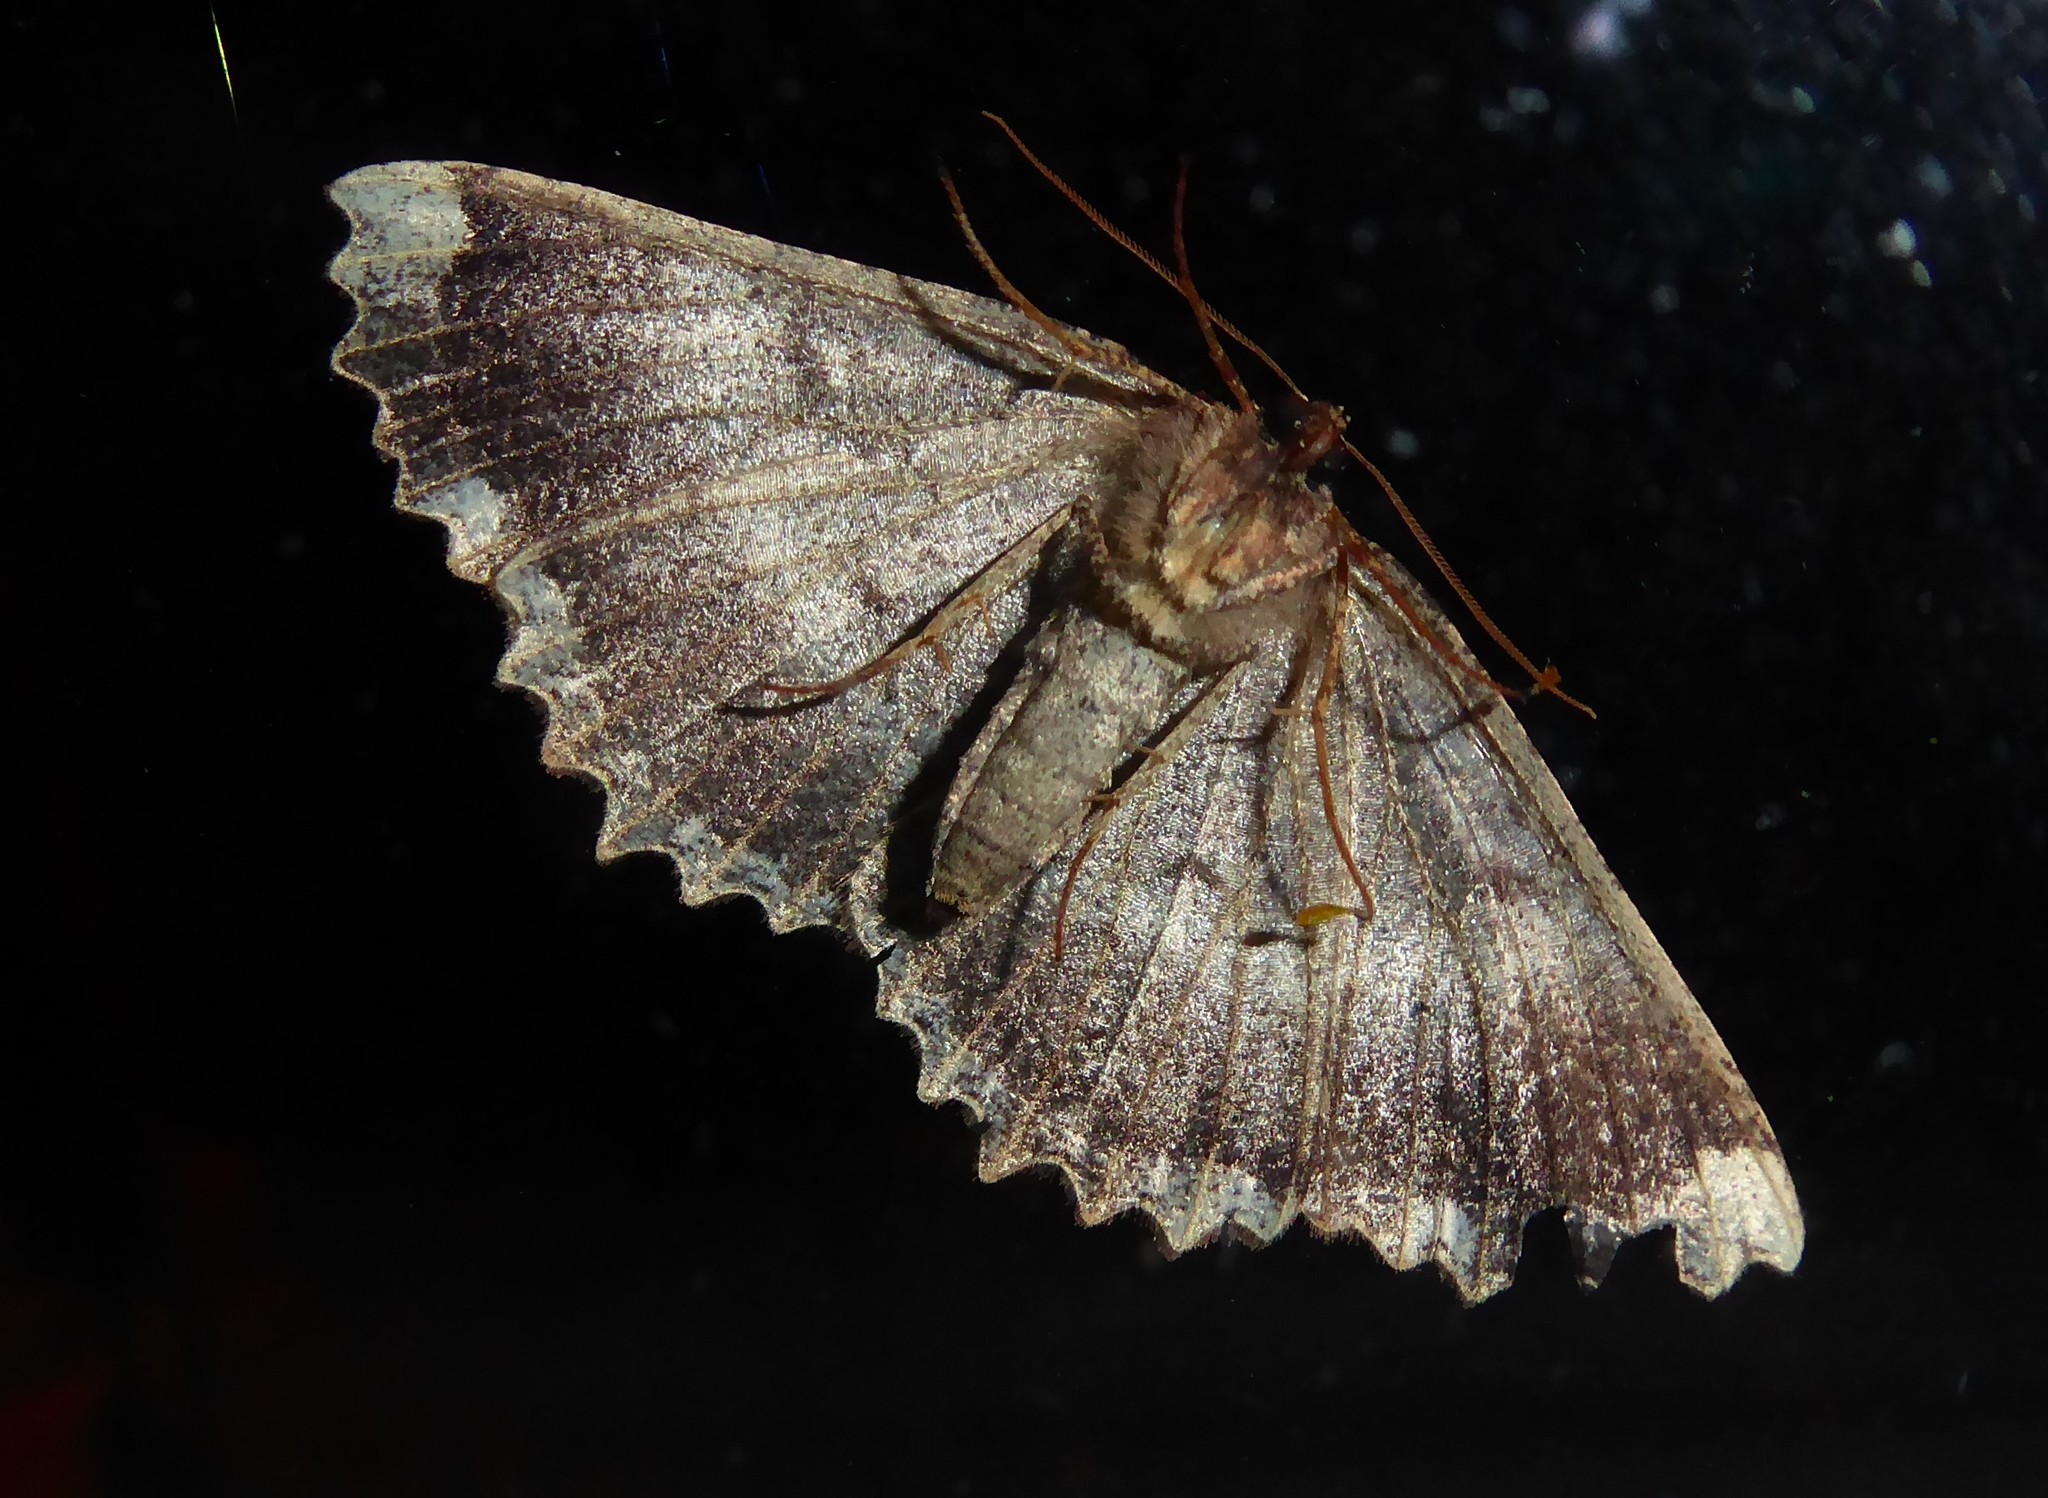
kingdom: Animalia
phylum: Arthropoda
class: Insecta
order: Lepidoptera
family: Geometridae
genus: Gellonia
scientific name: Gellonia dejectaria
